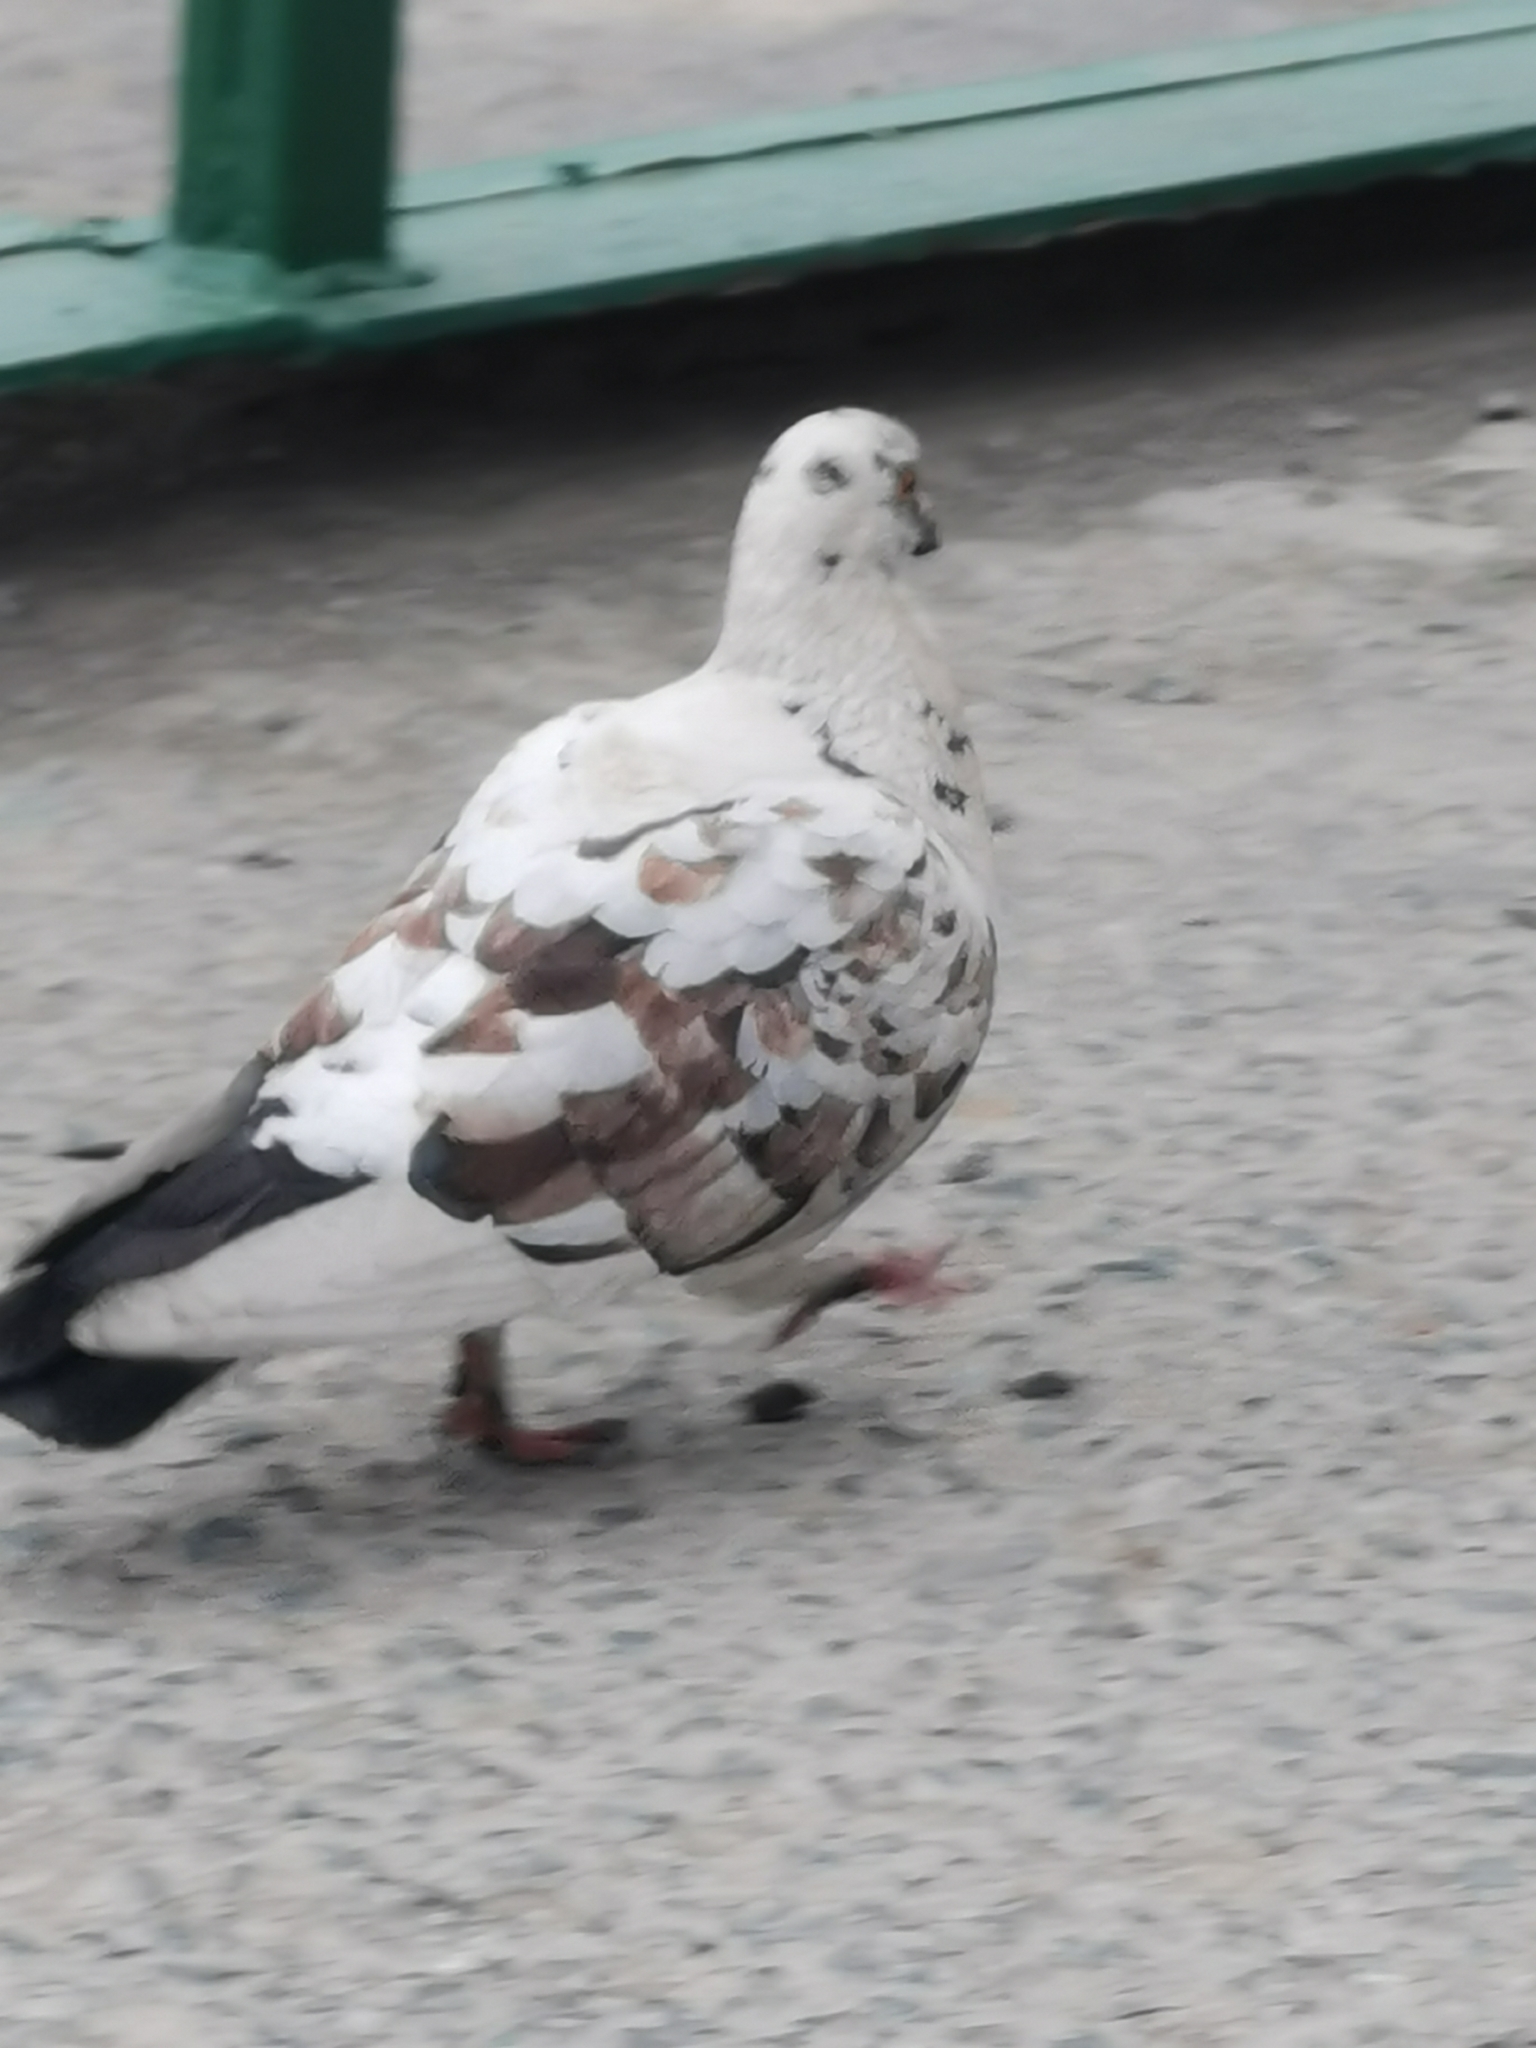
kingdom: Animalia
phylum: Chordata
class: Aves
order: Columbiformes
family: Columbidae
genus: Columba
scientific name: Columba livia
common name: Rock pigeon
